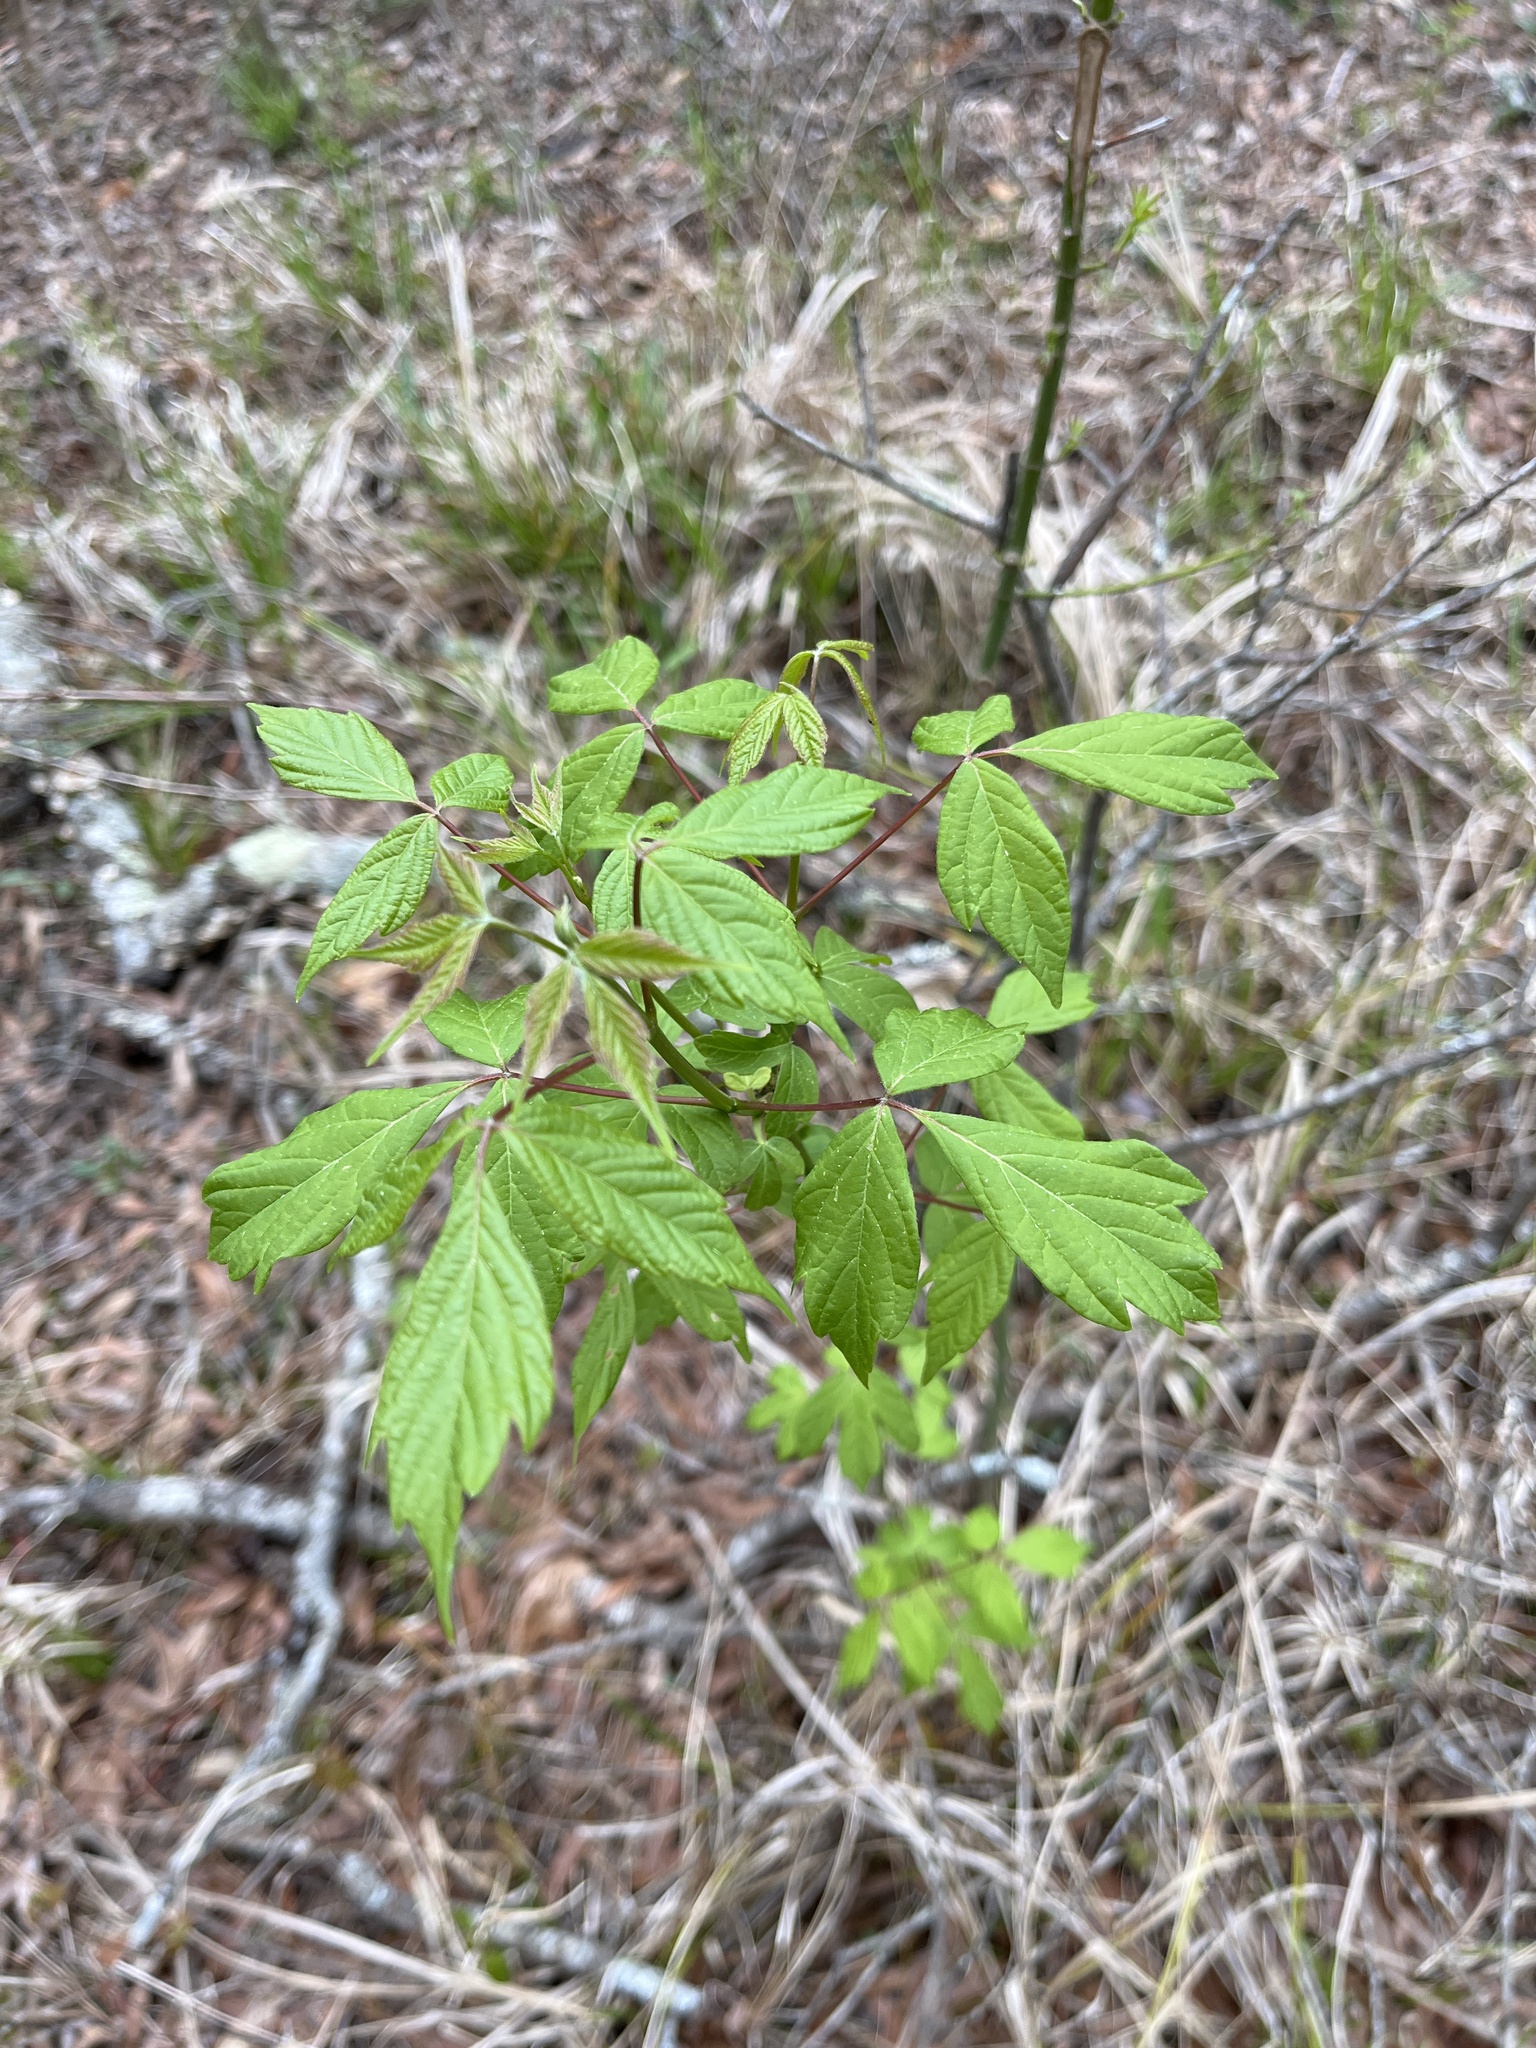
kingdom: Plantae
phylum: Tracheophyta
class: Magnoliopsida
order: Sapindales
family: Sapindaceae
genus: Acer
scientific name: Acer negundo
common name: Ashleaf maple
